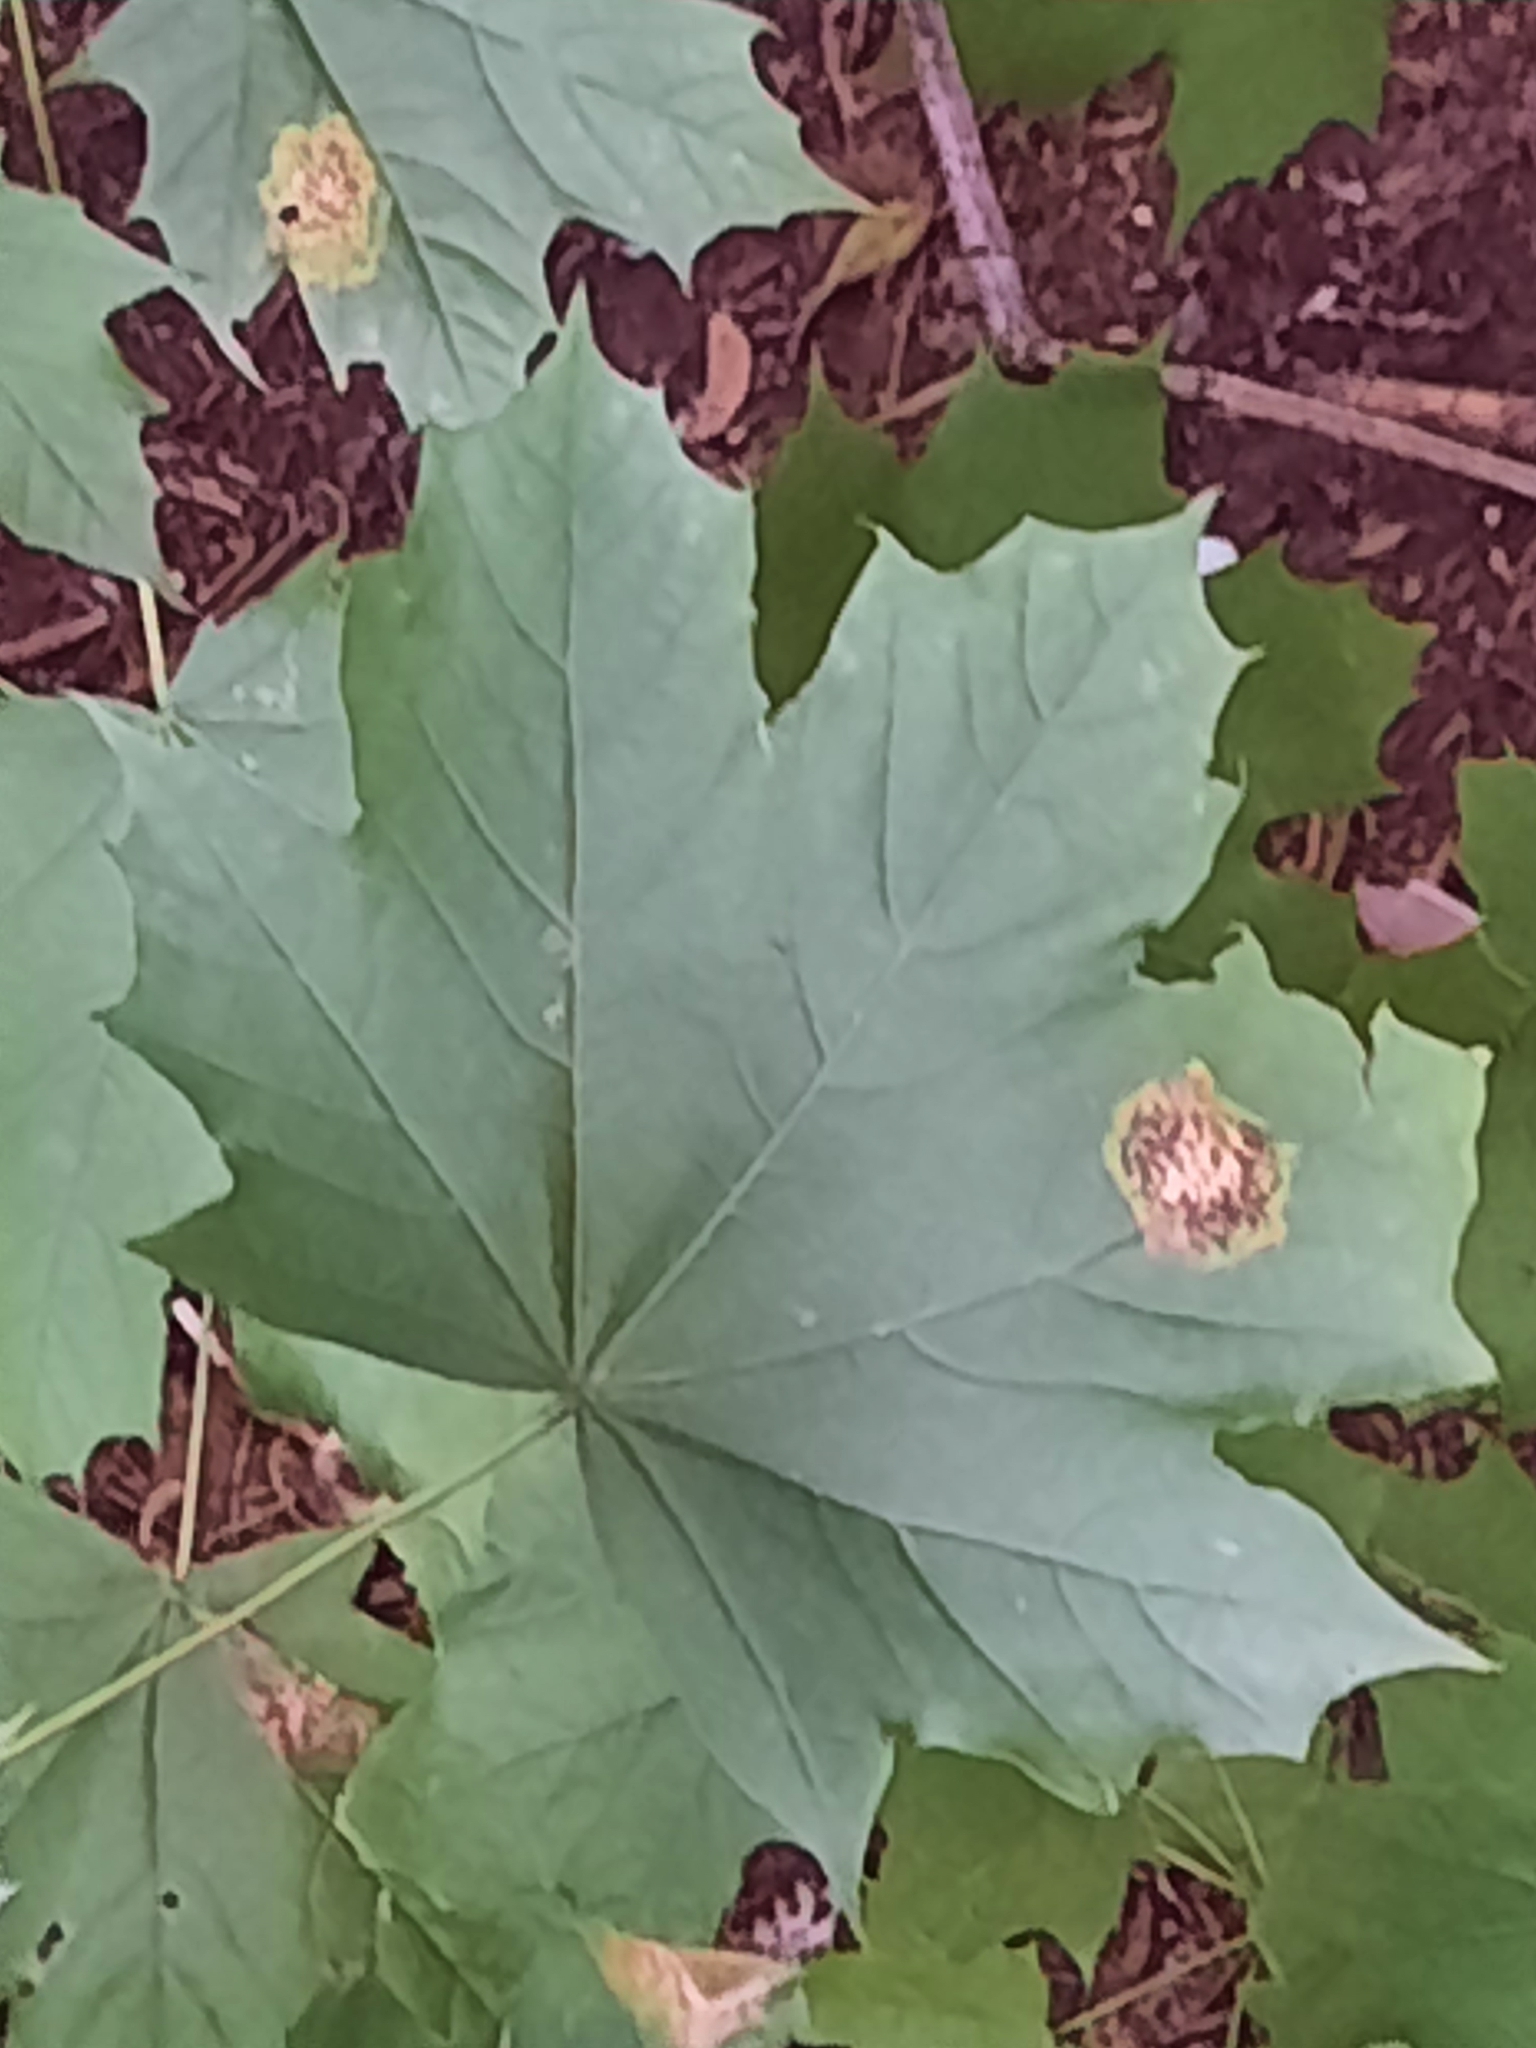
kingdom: Plantae
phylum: Tracheophyta
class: Magnoliopsida
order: Sapindales
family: Sapindaceae
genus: Acer
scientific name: Acer platanoides
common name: Norway maple
